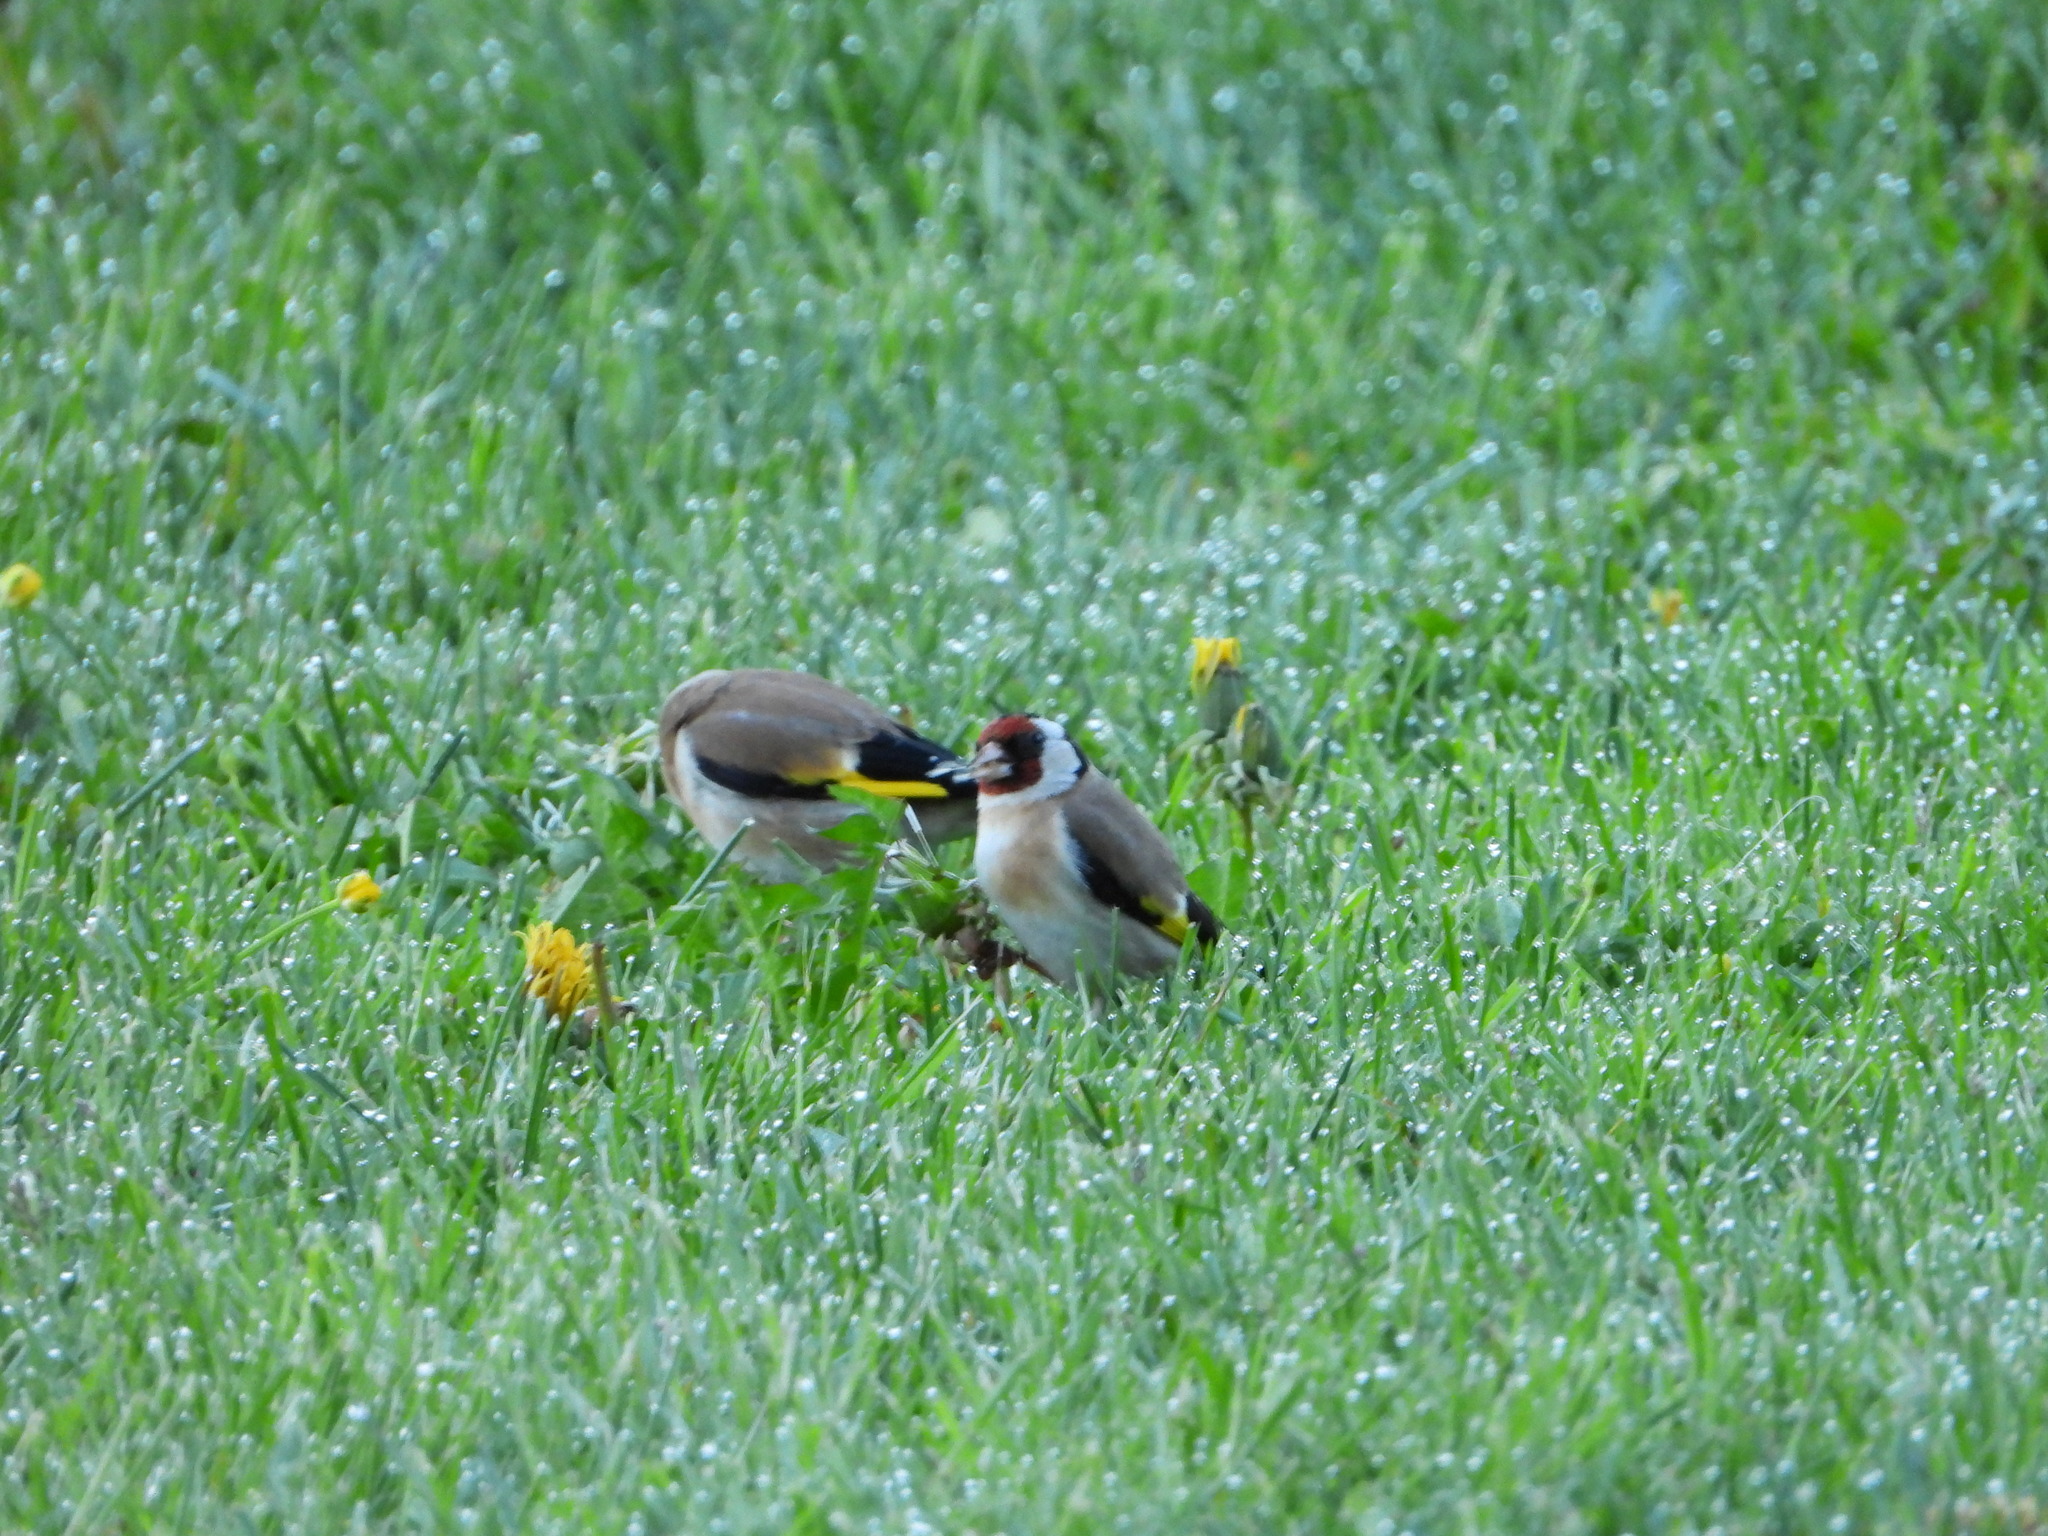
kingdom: Animalia
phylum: Chordata
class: Aves
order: Passeriformes
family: Fringillidae
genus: Carduelis
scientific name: Carduelis carduelis
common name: European goldfinch
